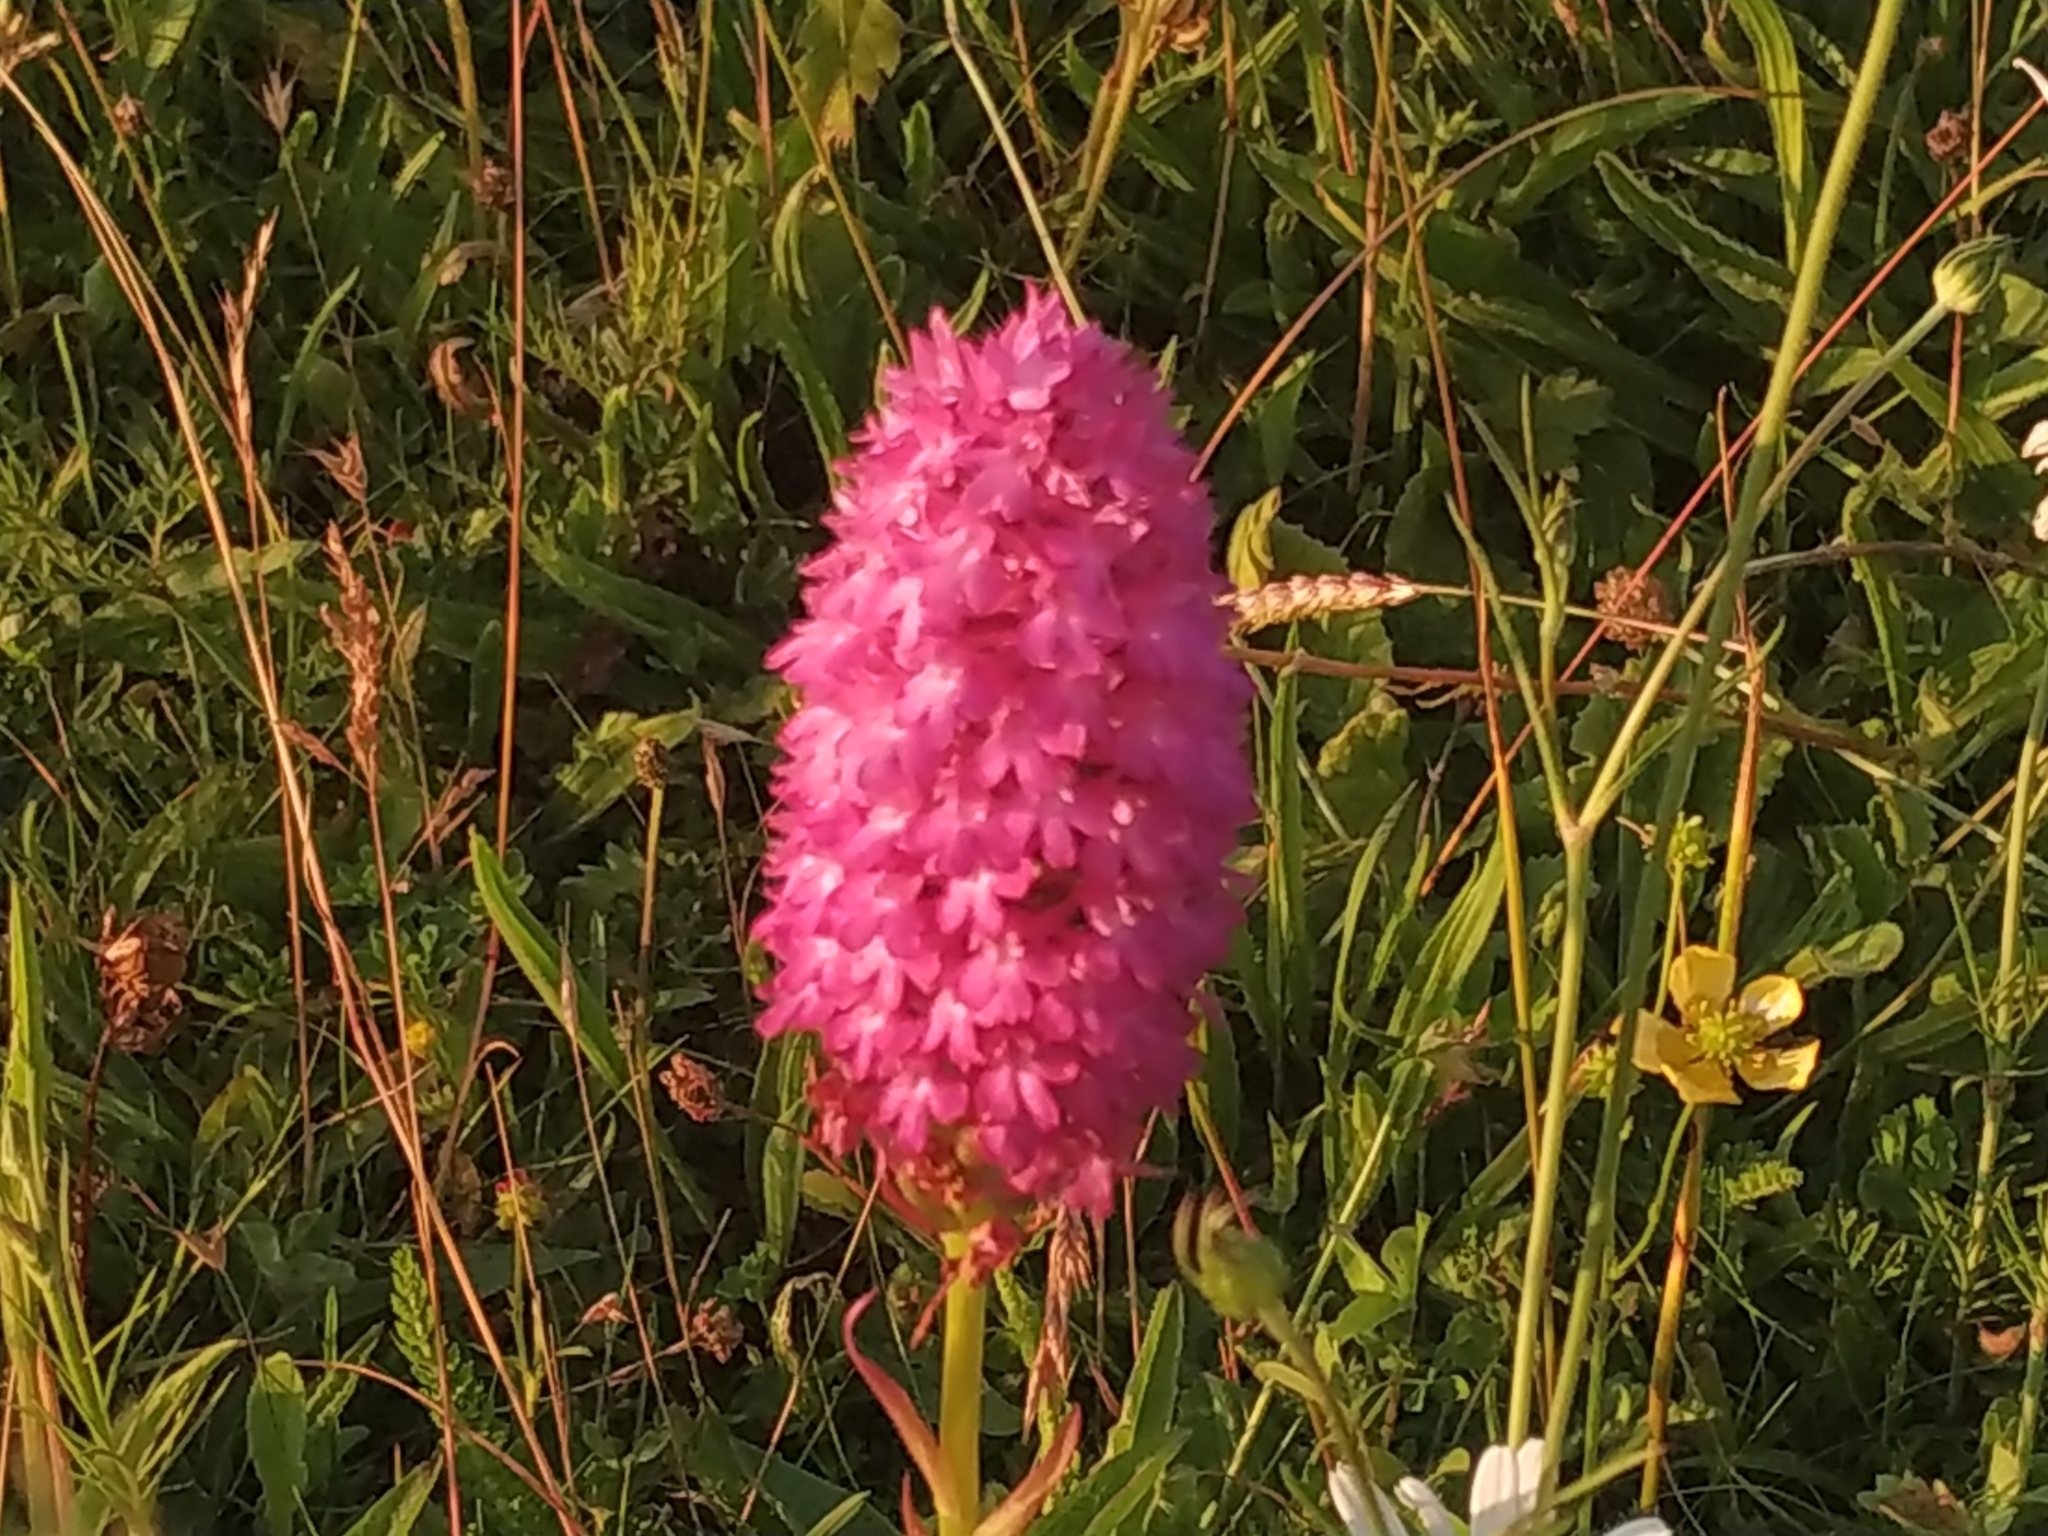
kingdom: Plantae
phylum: Tracheophyta
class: Liliopsida
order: Asparagales
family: Orchidaceae
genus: Anacamptis
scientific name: Anacamptis pyramidalis
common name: Pyramidal orchid
